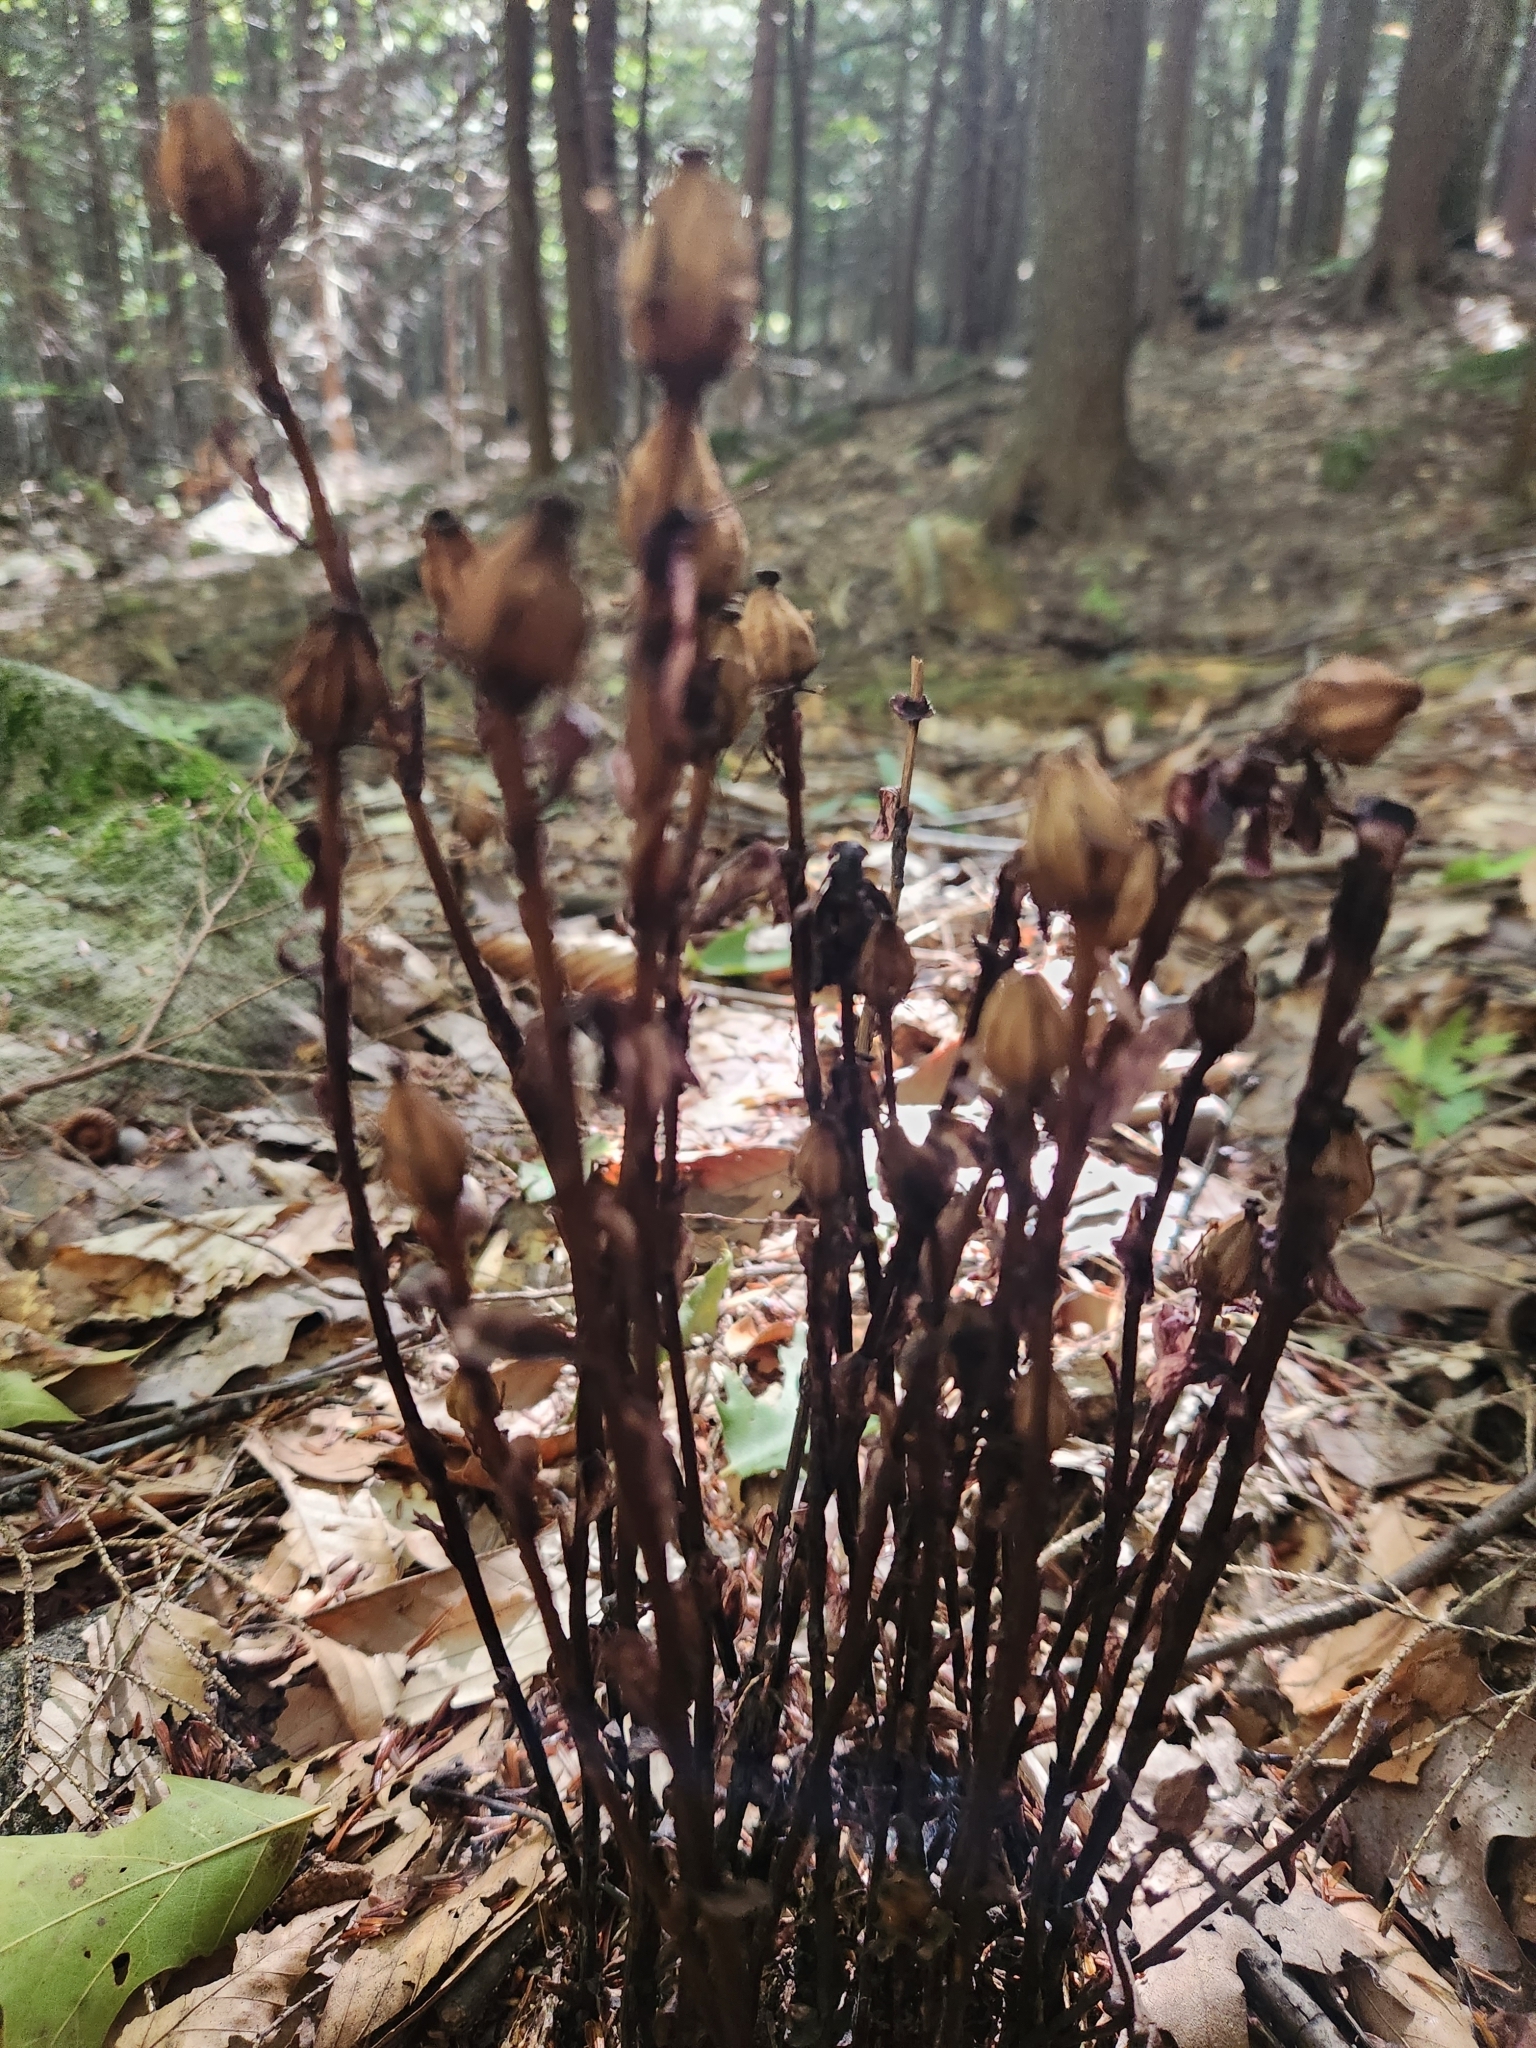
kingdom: Plantae
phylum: Tracheophyta
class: Magnoliopsida
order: Ericales
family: Ericaceae
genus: Monotropa
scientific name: Monotropa uniflora
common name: Convulsion root
